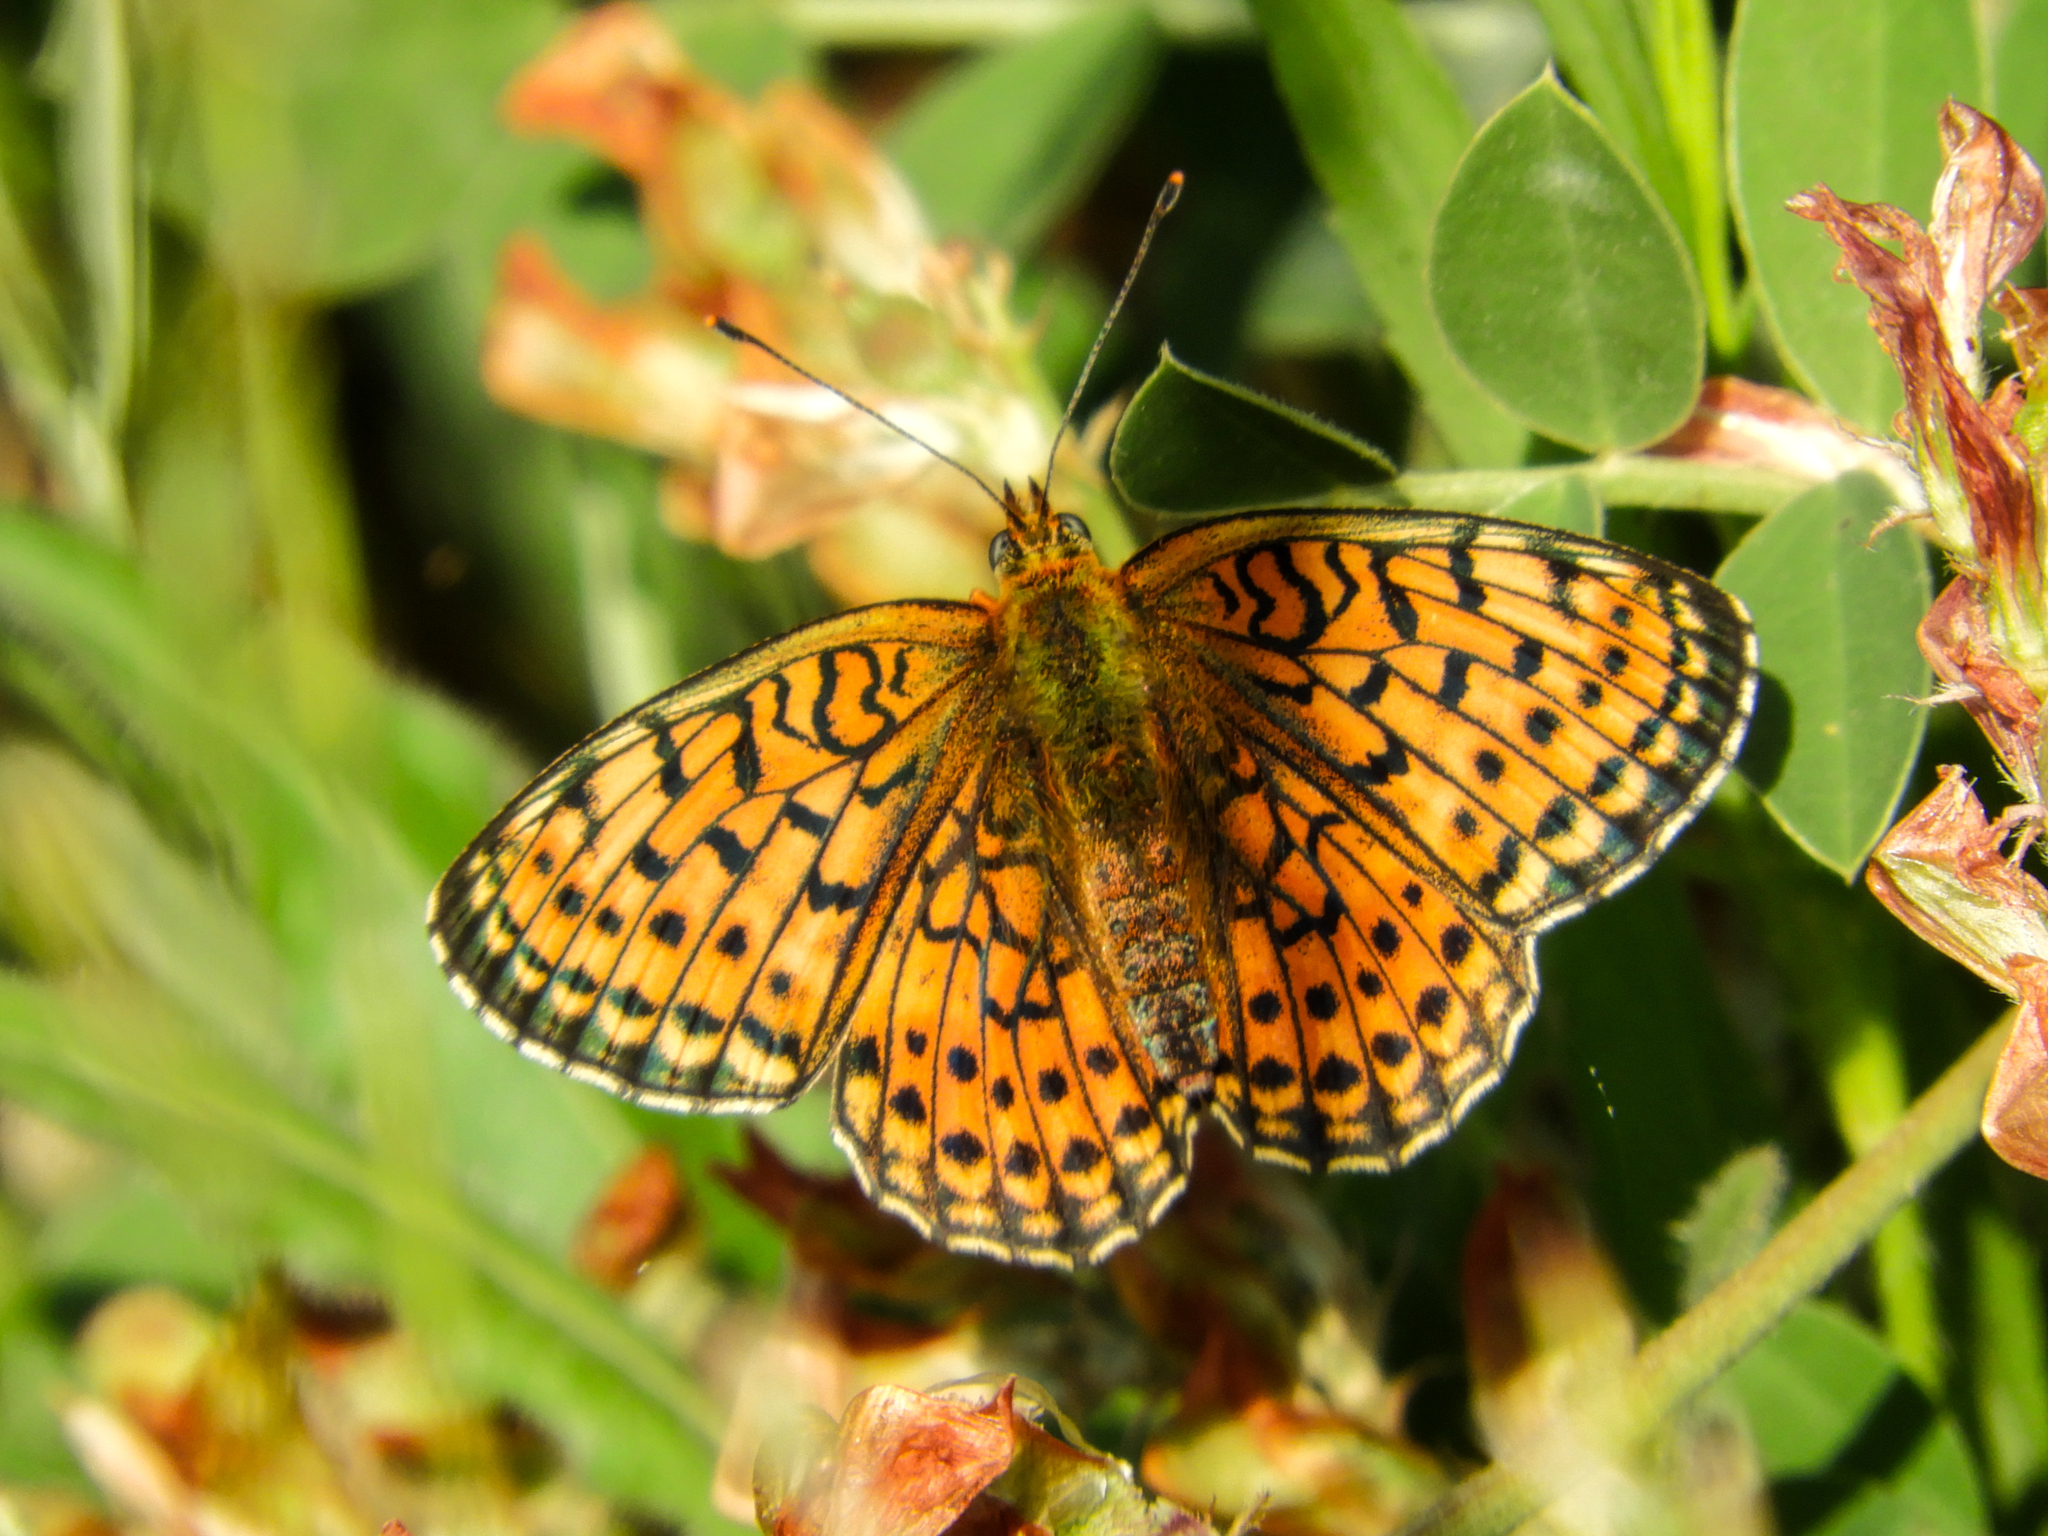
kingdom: Animalia
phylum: Arthropoda
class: Insecta
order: Lepidoptera
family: Nymphalidae
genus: Brenthis
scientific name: Brenthis hecate
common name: Twin-spot fritillary
